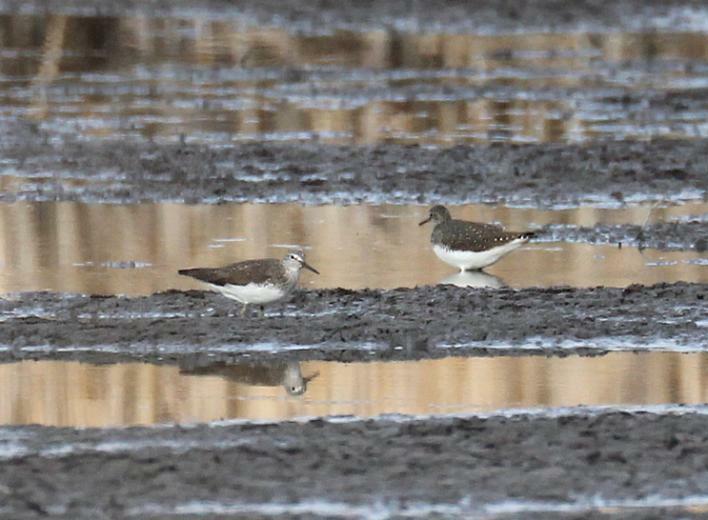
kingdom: Animalia
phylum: Chordata
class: Aves
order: Charadriiformes
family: Scolopacidae
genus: Tringa
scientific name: Tringa ochropus
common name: Green sandpiper
